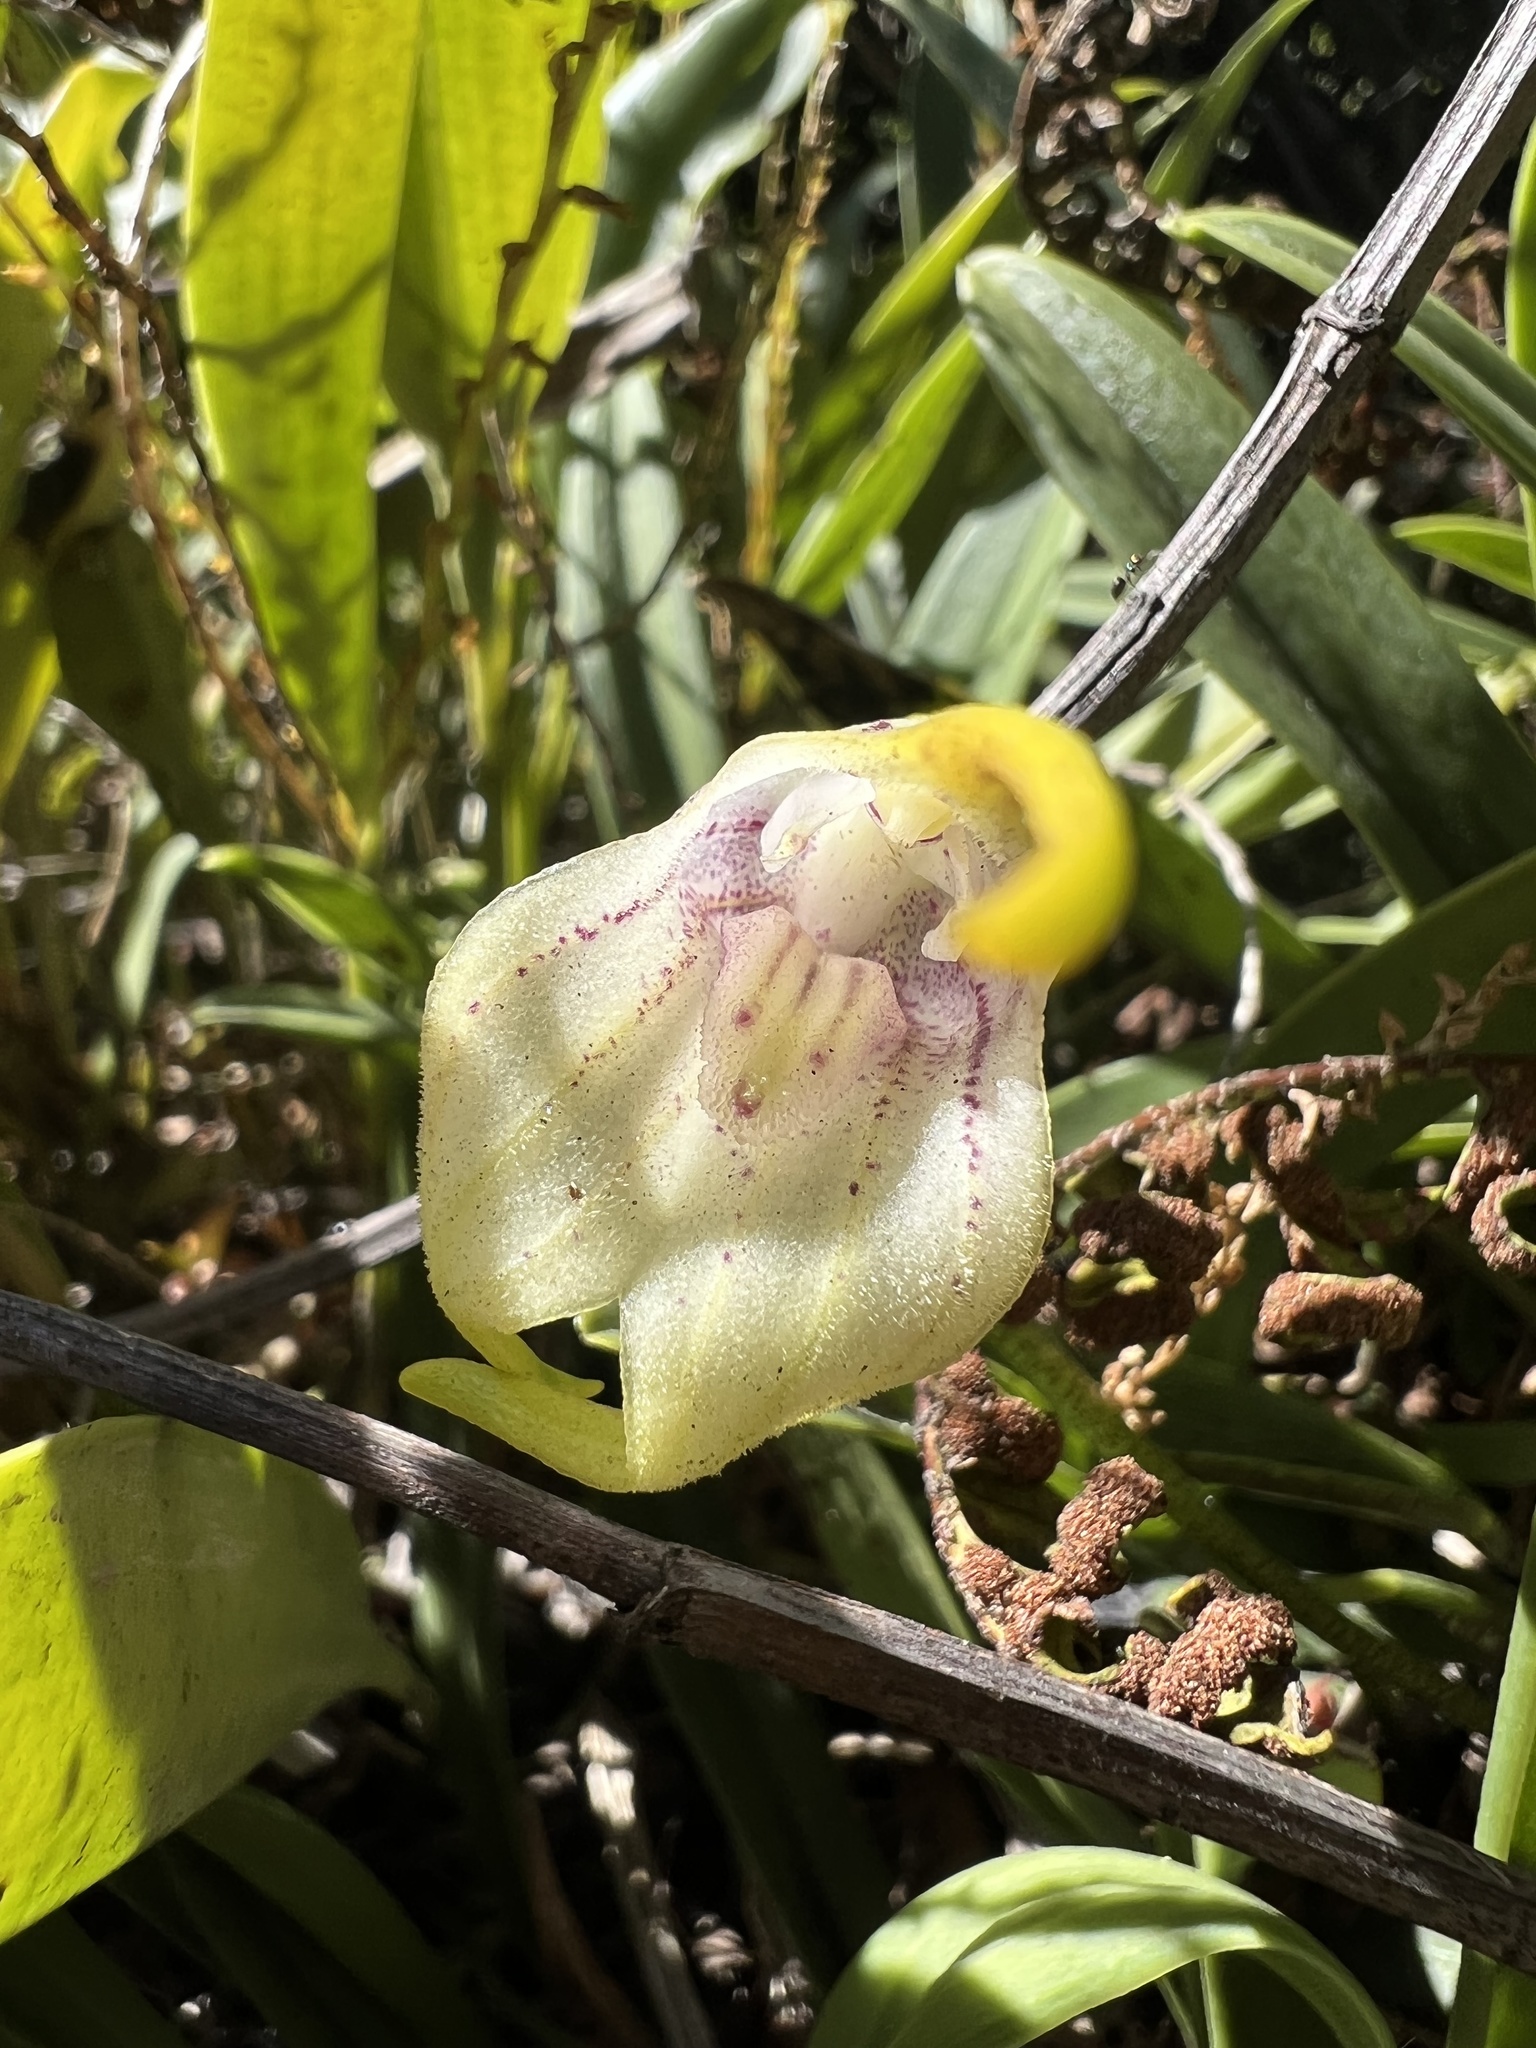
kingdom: Plantae
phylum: Tracheophyta
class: Liliopsida
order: Asparagales
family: Orchidaceae
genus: Masdevallia
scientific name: Masdevallia coriacea
